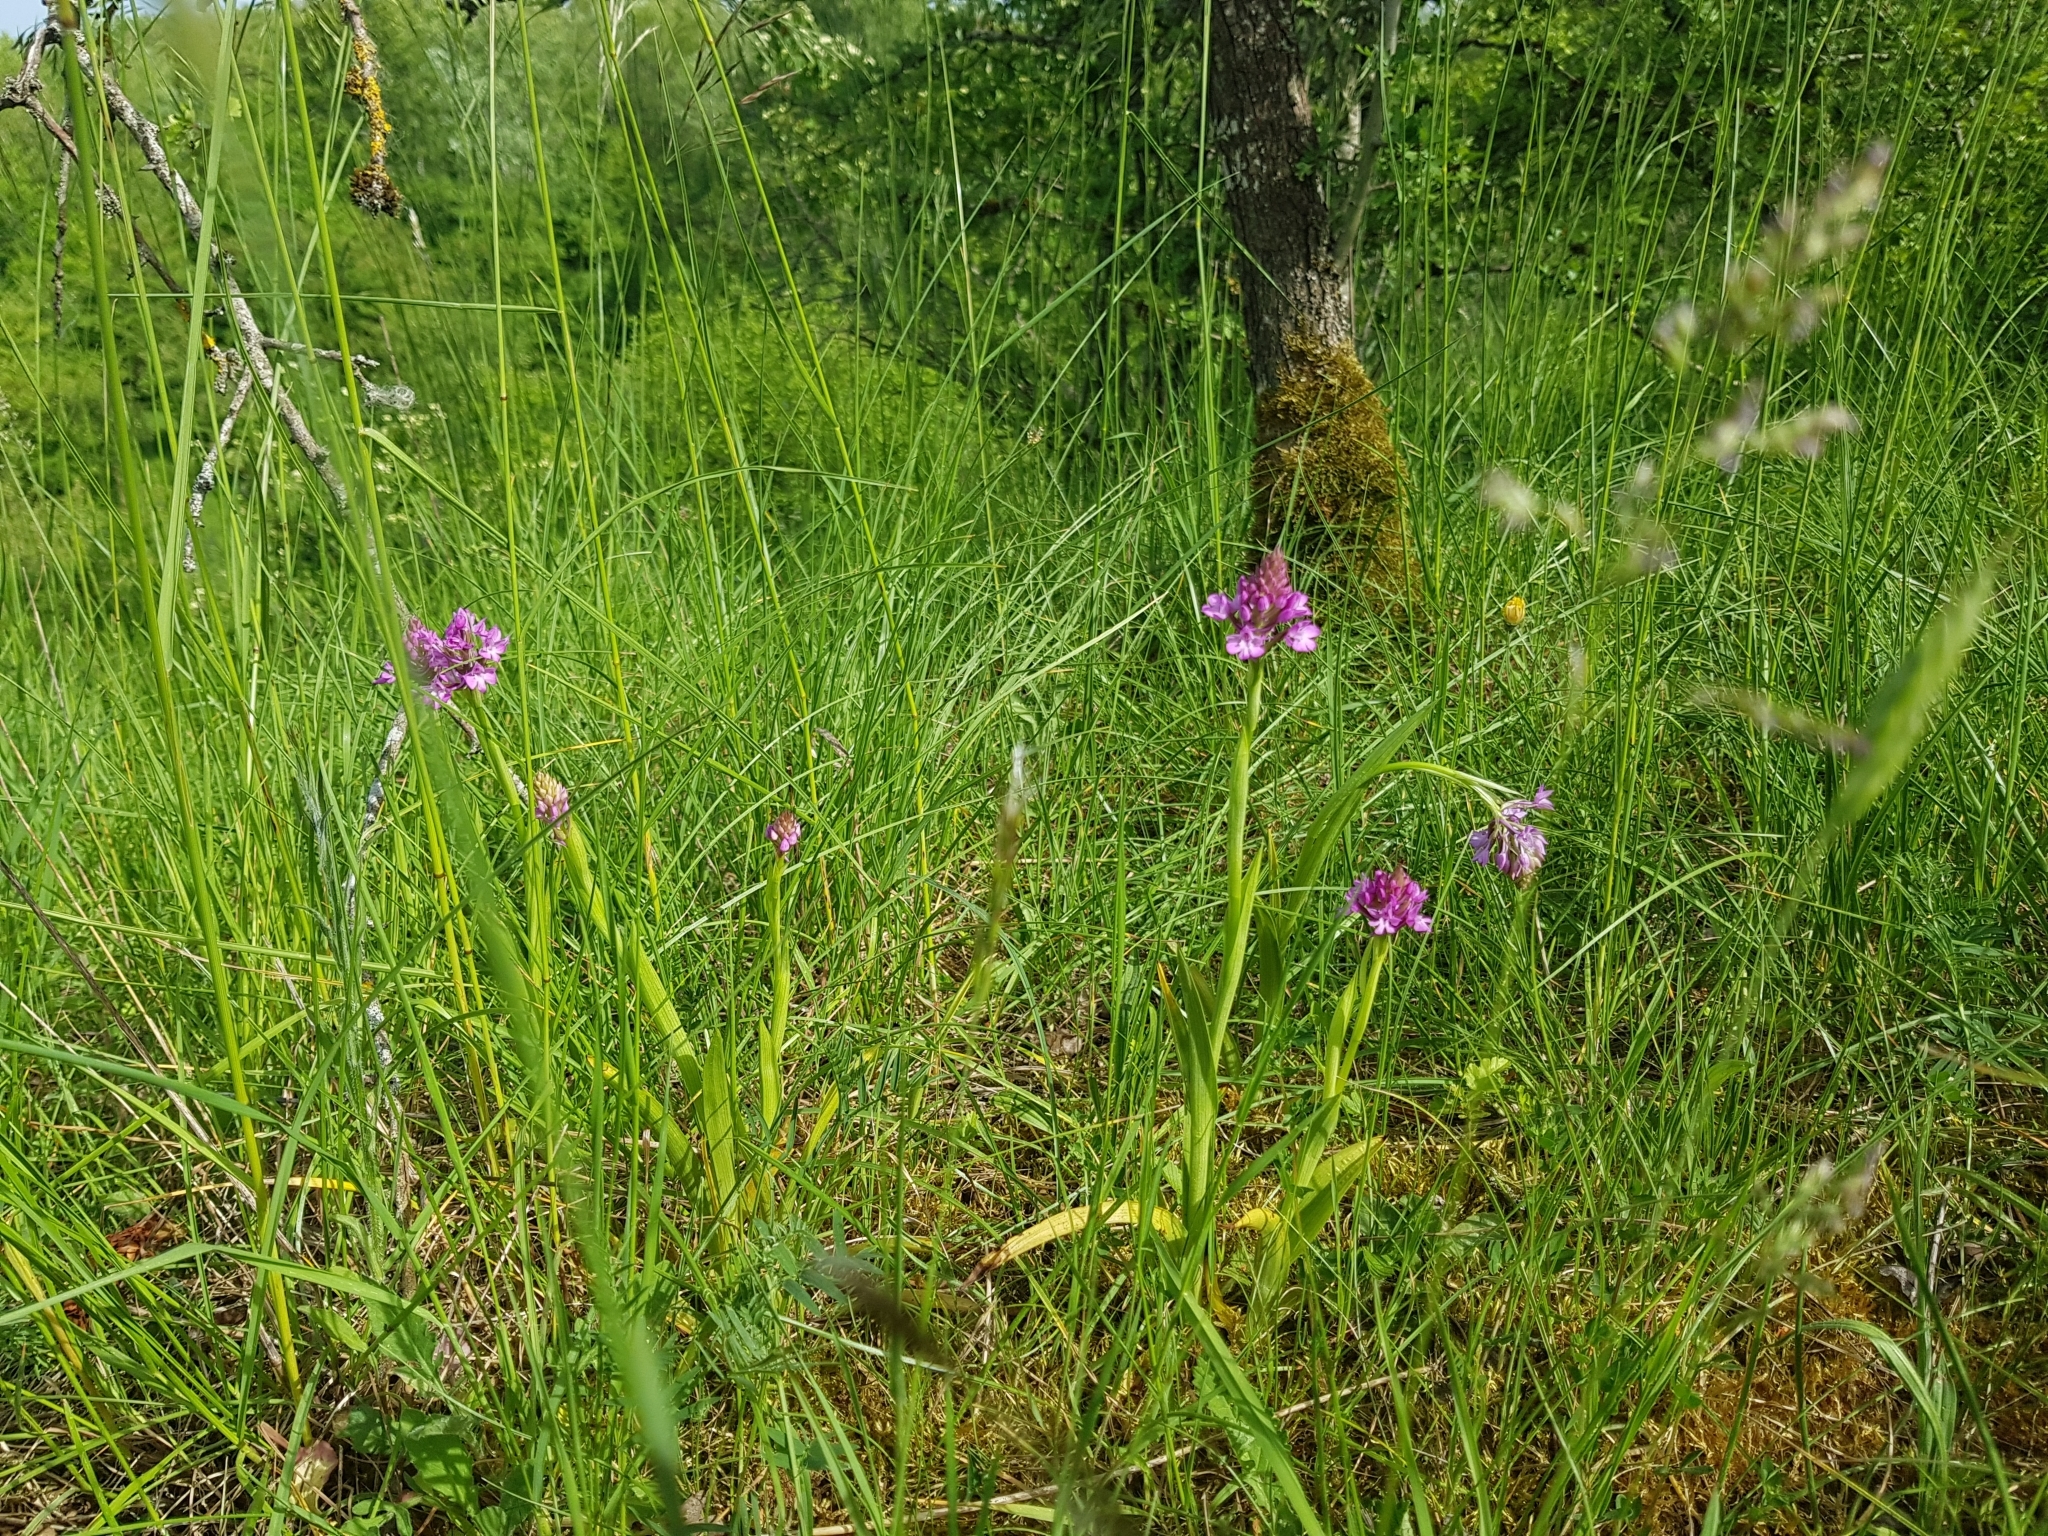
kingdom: Plantae
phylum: Tracheophyta
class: Liliopsida
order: Asparagales
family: Orchidaceae
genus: Anacamptis
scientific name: Anacamptis pyramidalis
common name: Pyramidal orchid
